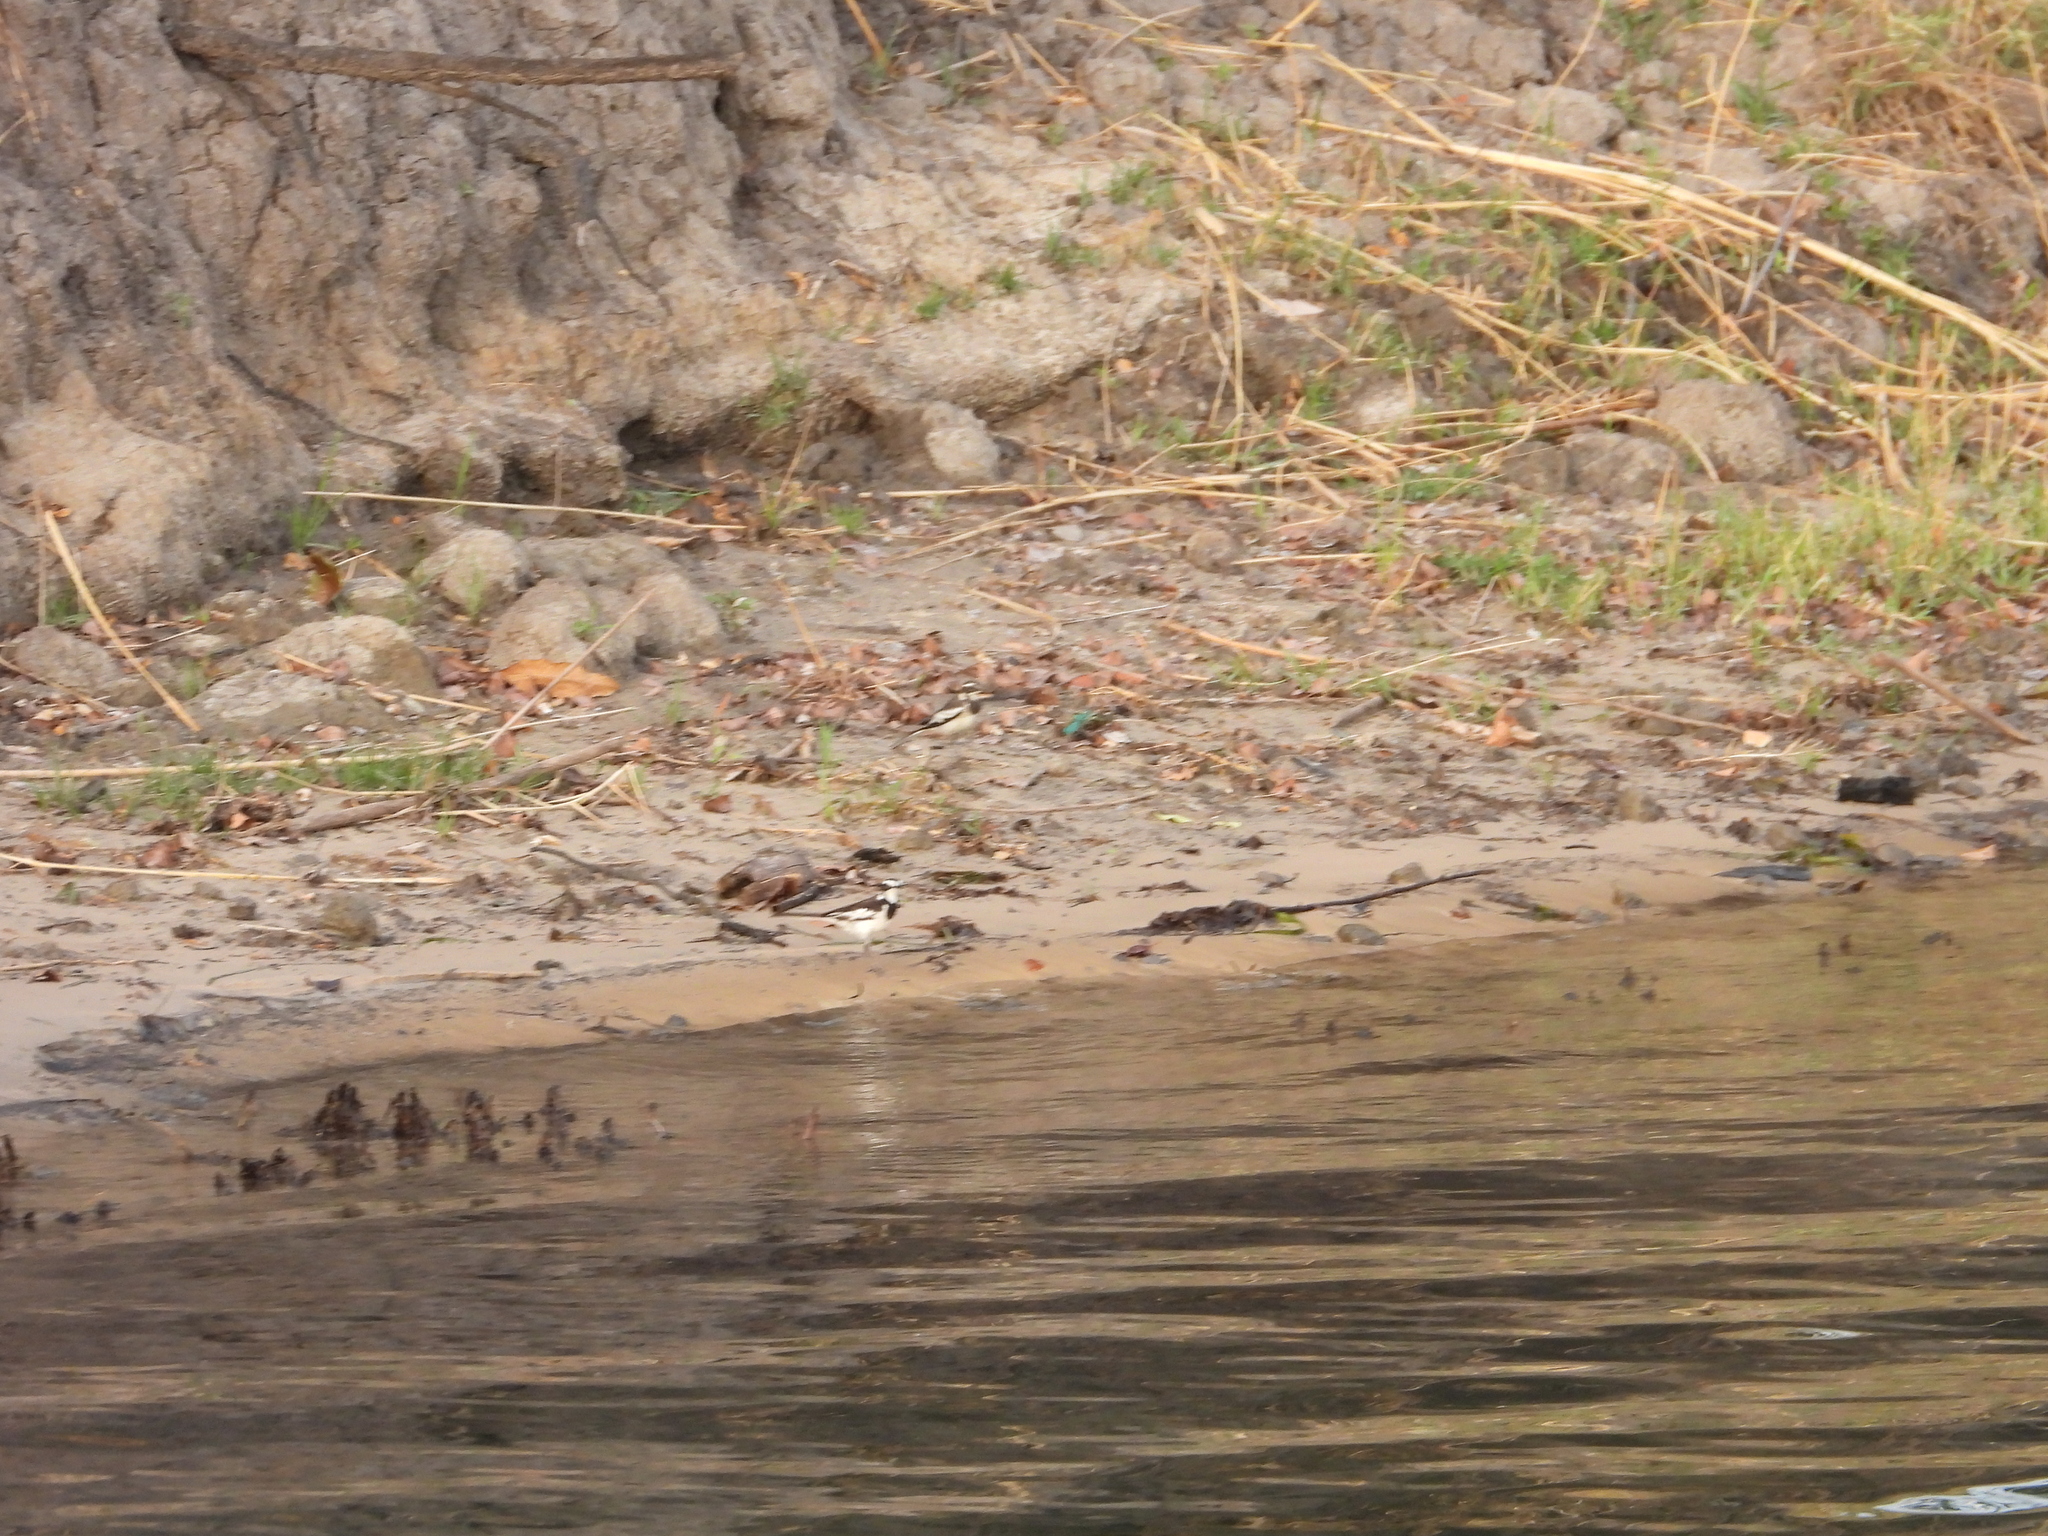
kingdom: Animalia
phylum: Chordata
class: Aves
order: Passeriformes
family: Motacillidae
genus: Motacilla
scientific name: Motacilla aguimp
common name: African pied wagtail
